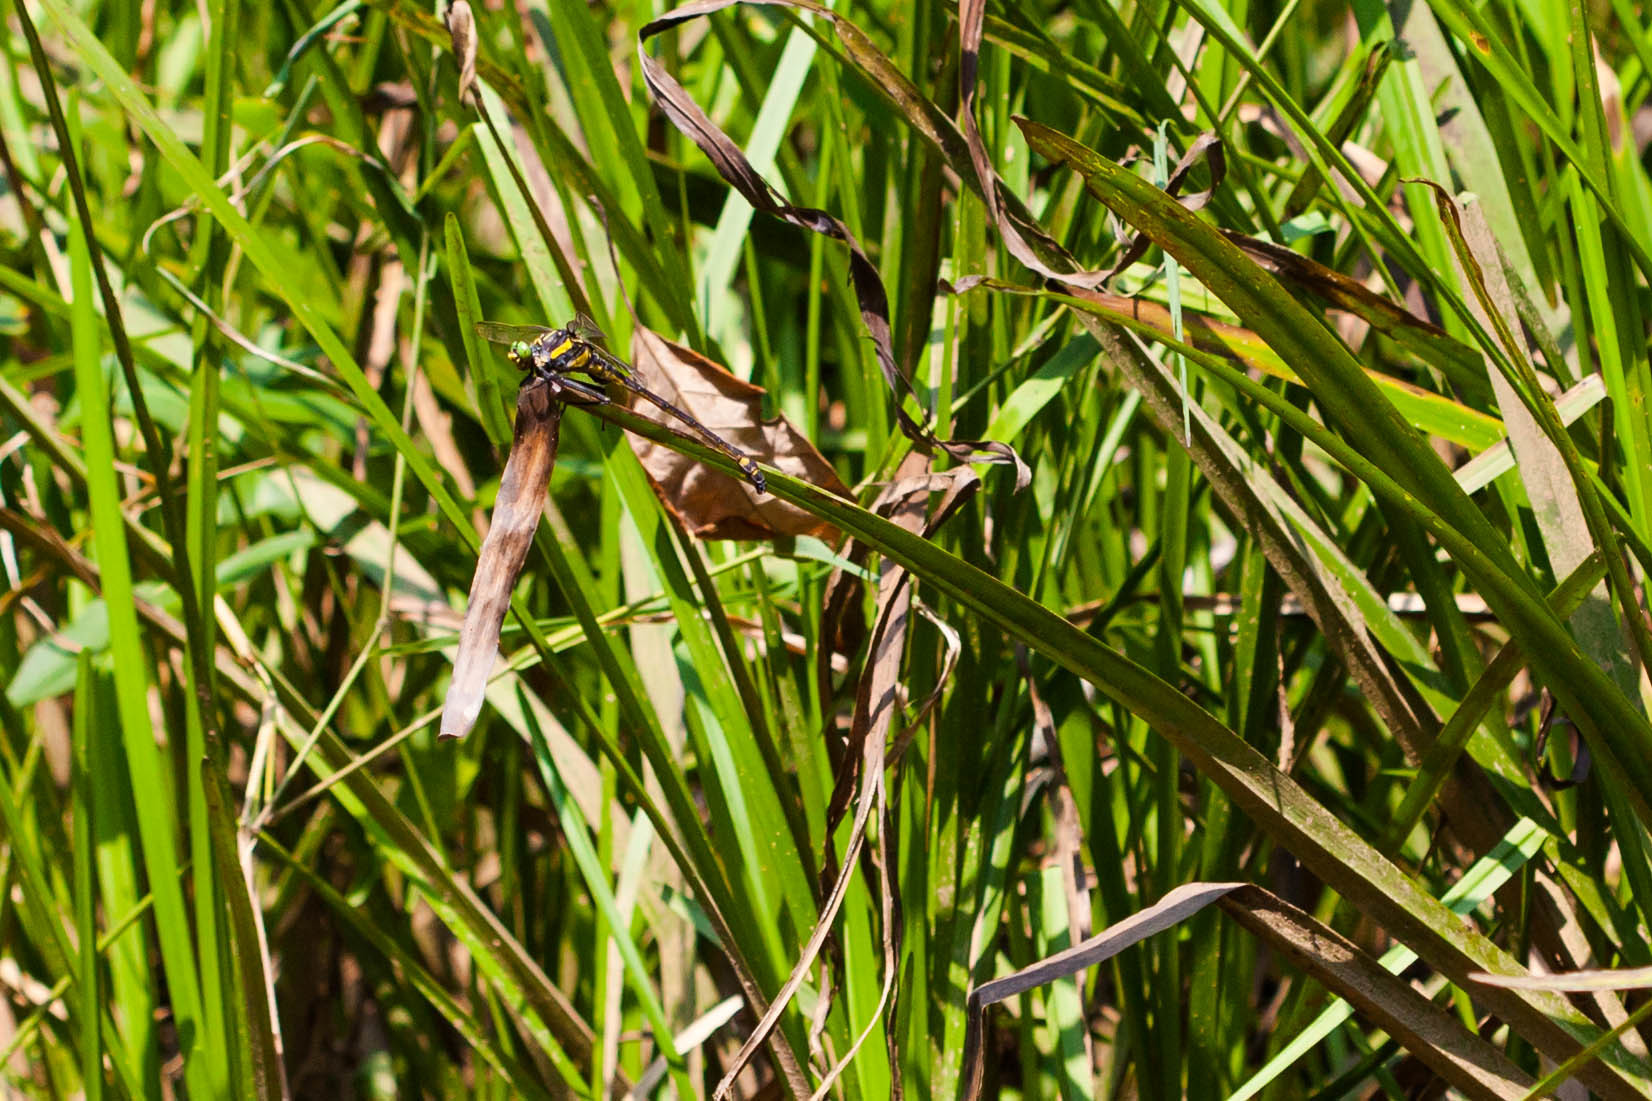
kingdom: Animalia
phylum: Arthropoda
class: Insecta
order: Odonata
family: Gomphidae
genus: Hagenius
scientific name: Hagenius brevistylus
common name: Dragonhunter
